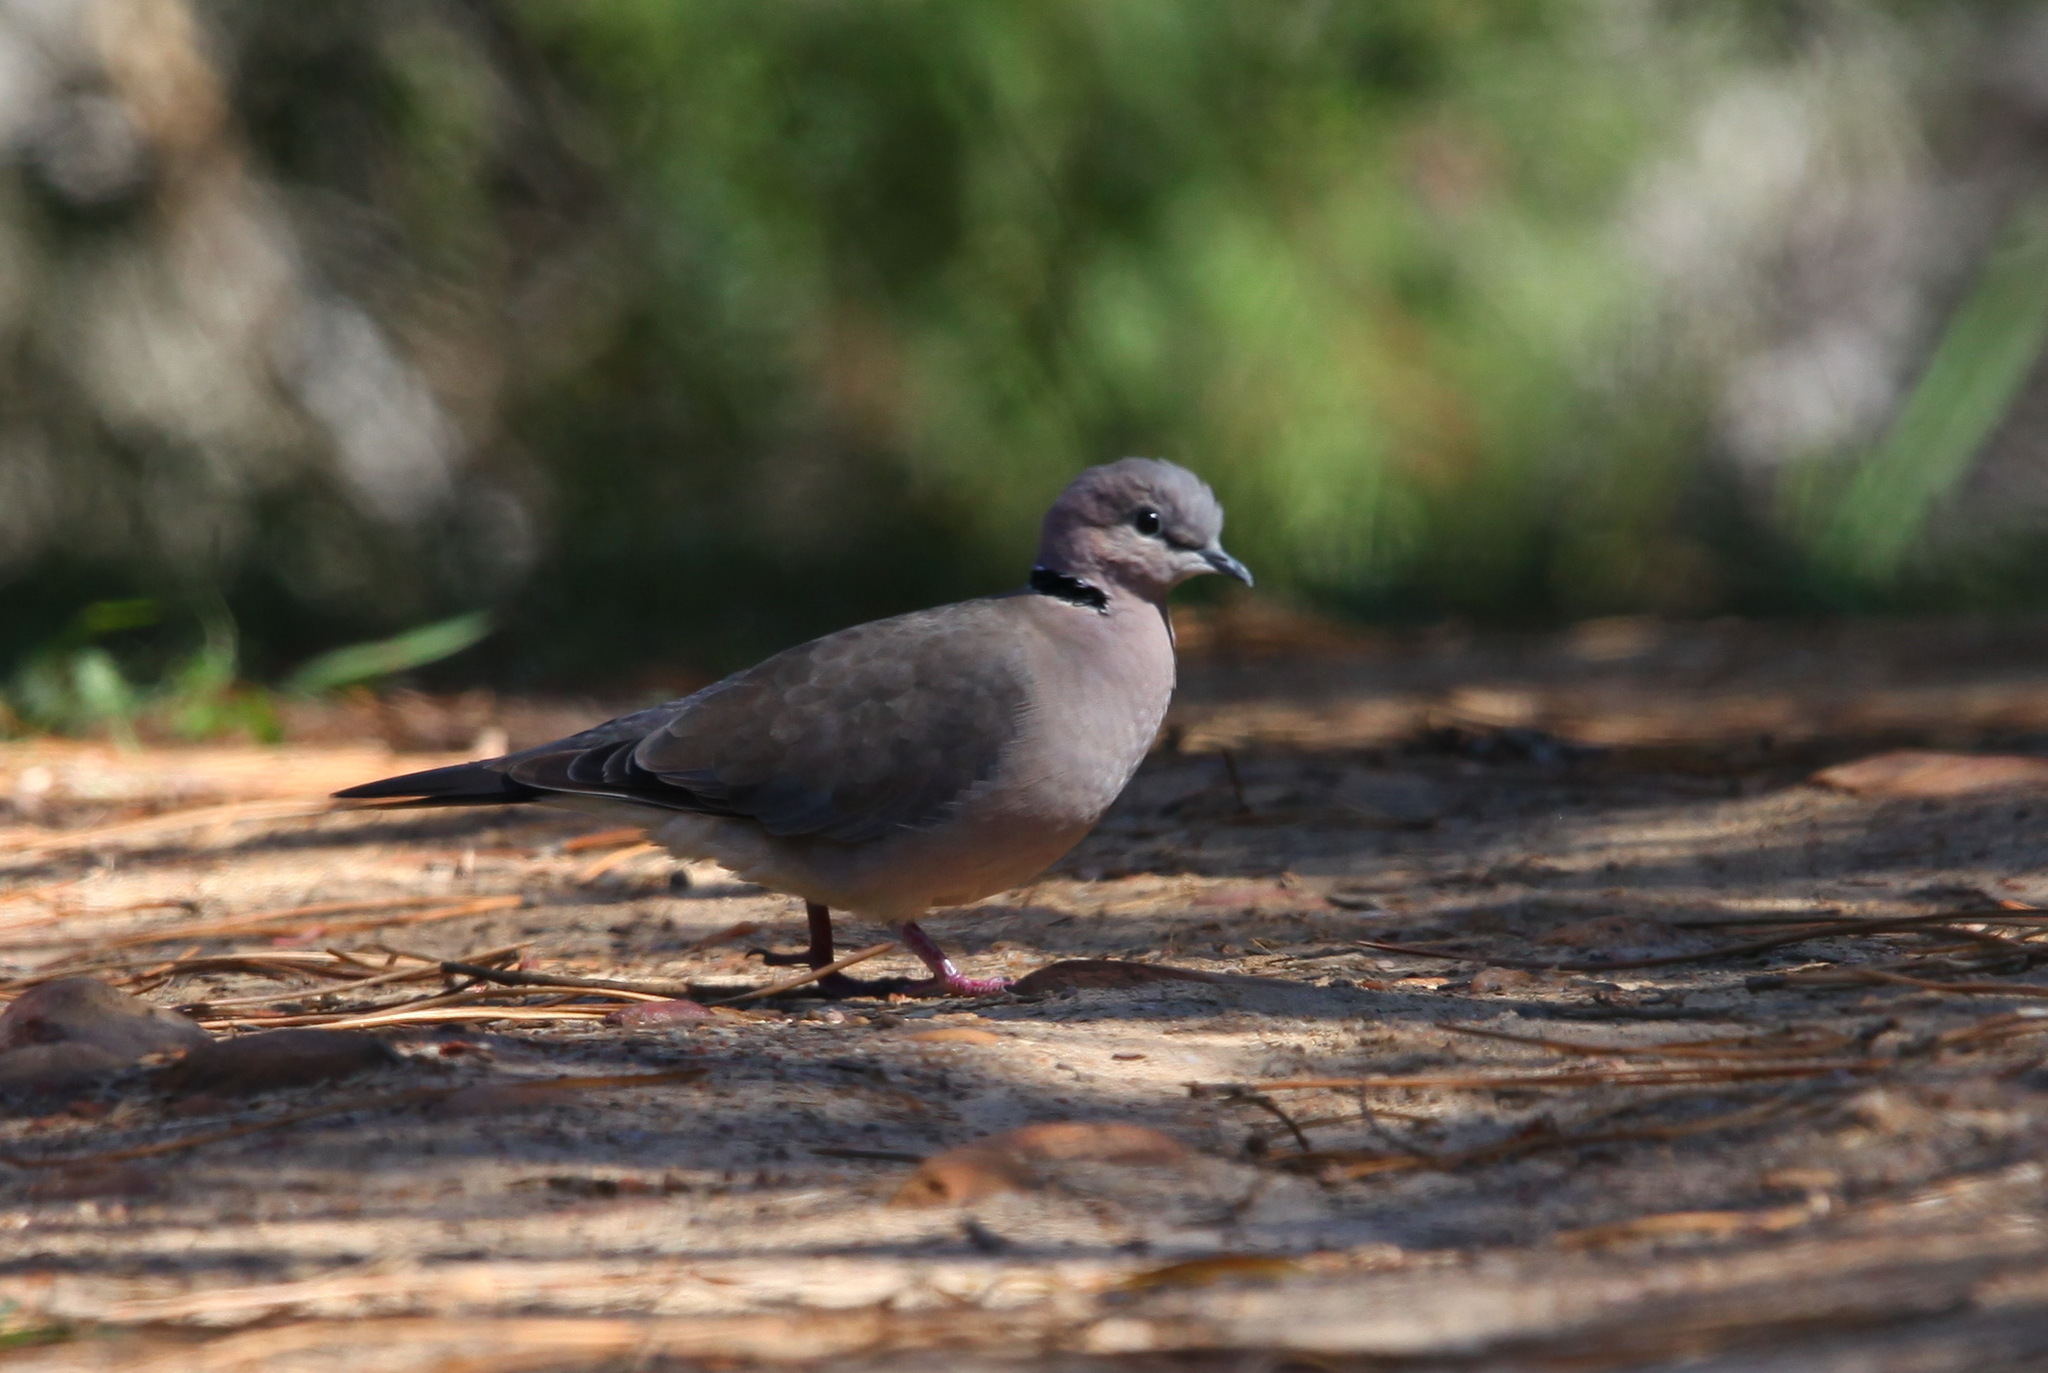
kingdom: Animalia
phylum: Chordata
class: Aves
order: Columbiformes
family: Columbidae
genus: Streptopelia
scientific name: Streptopelia capicola
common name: Ring-necked dove
